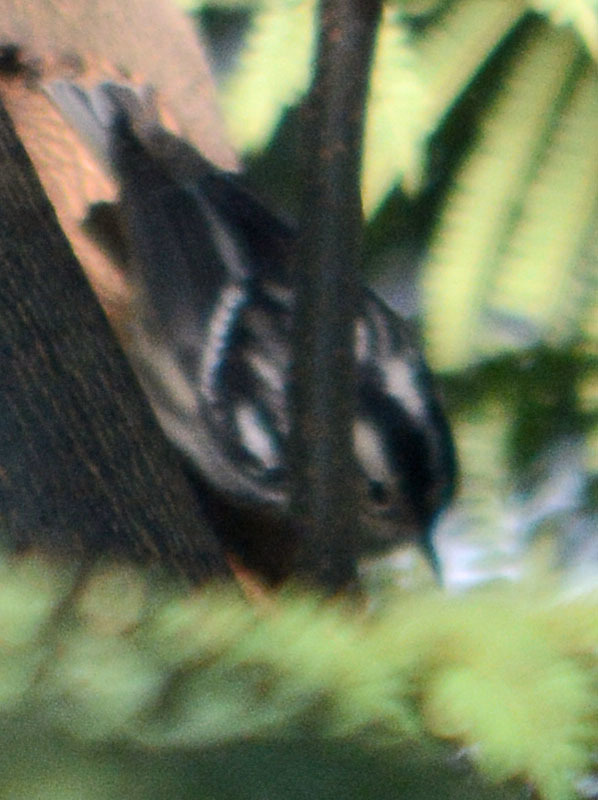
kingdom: Animalia
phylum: Chordata
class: Aves
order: Passeriformes
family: Parulidae
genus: Mniotilta
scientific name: Mniotilta varia
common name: Black-and-white warbler
